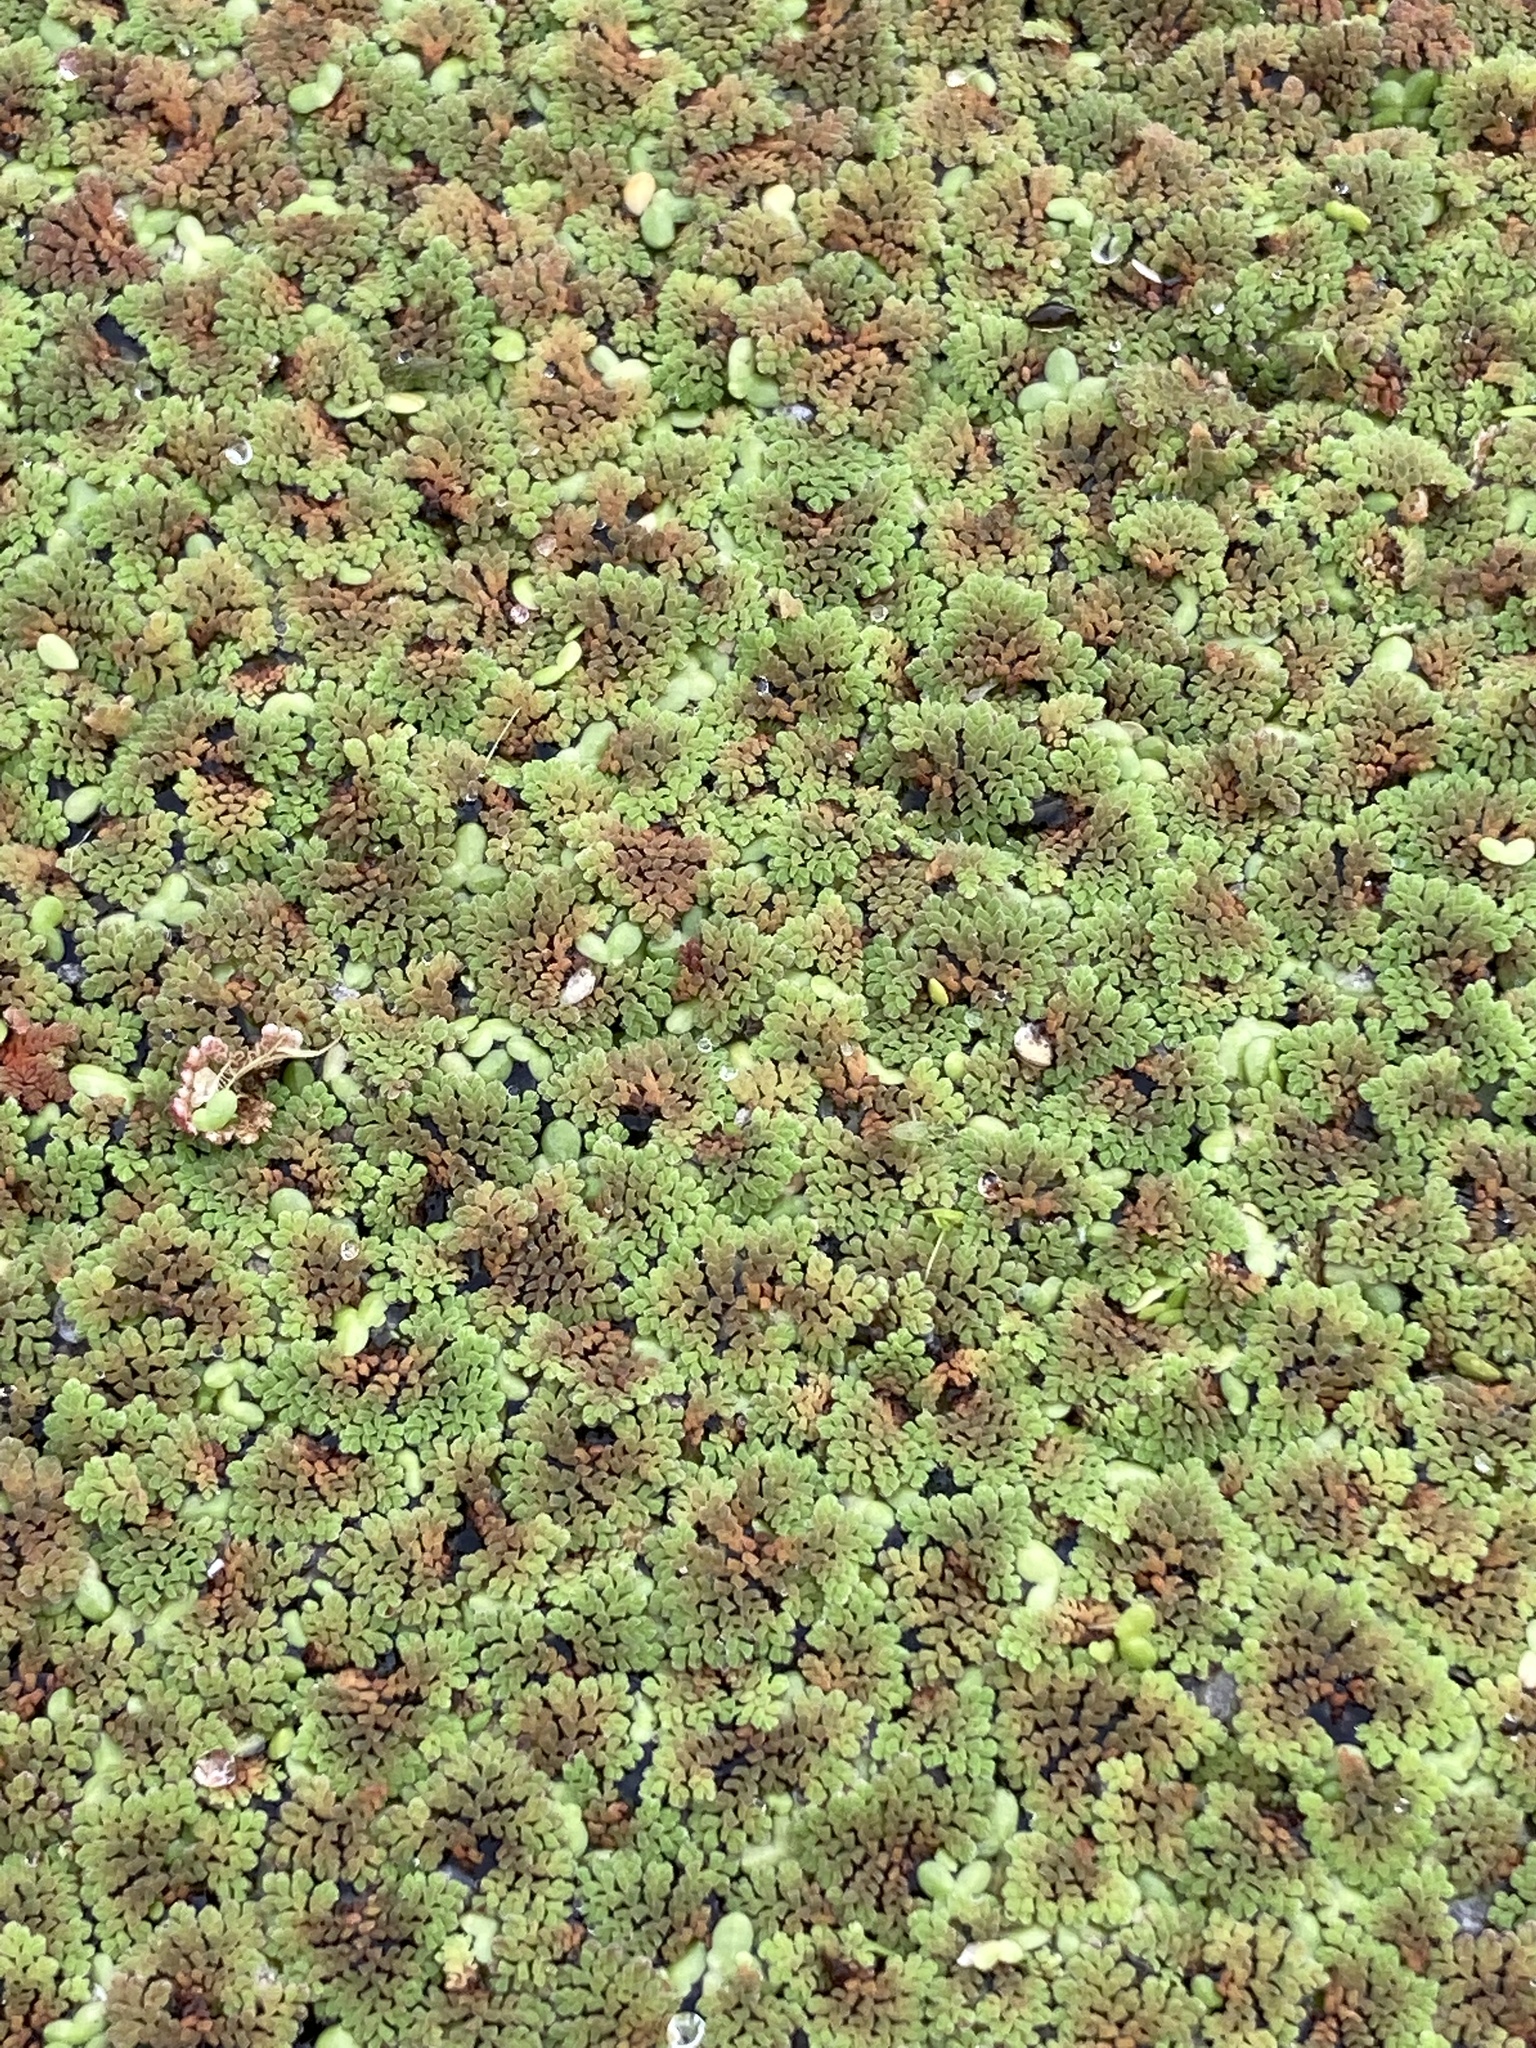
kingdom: Plantae
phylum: Tracheophyta
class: Polypodiopsida
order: Salviniales
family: Salviniaceae
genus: Azolla
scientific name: Azolla pinnata
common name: Ferny azolla
